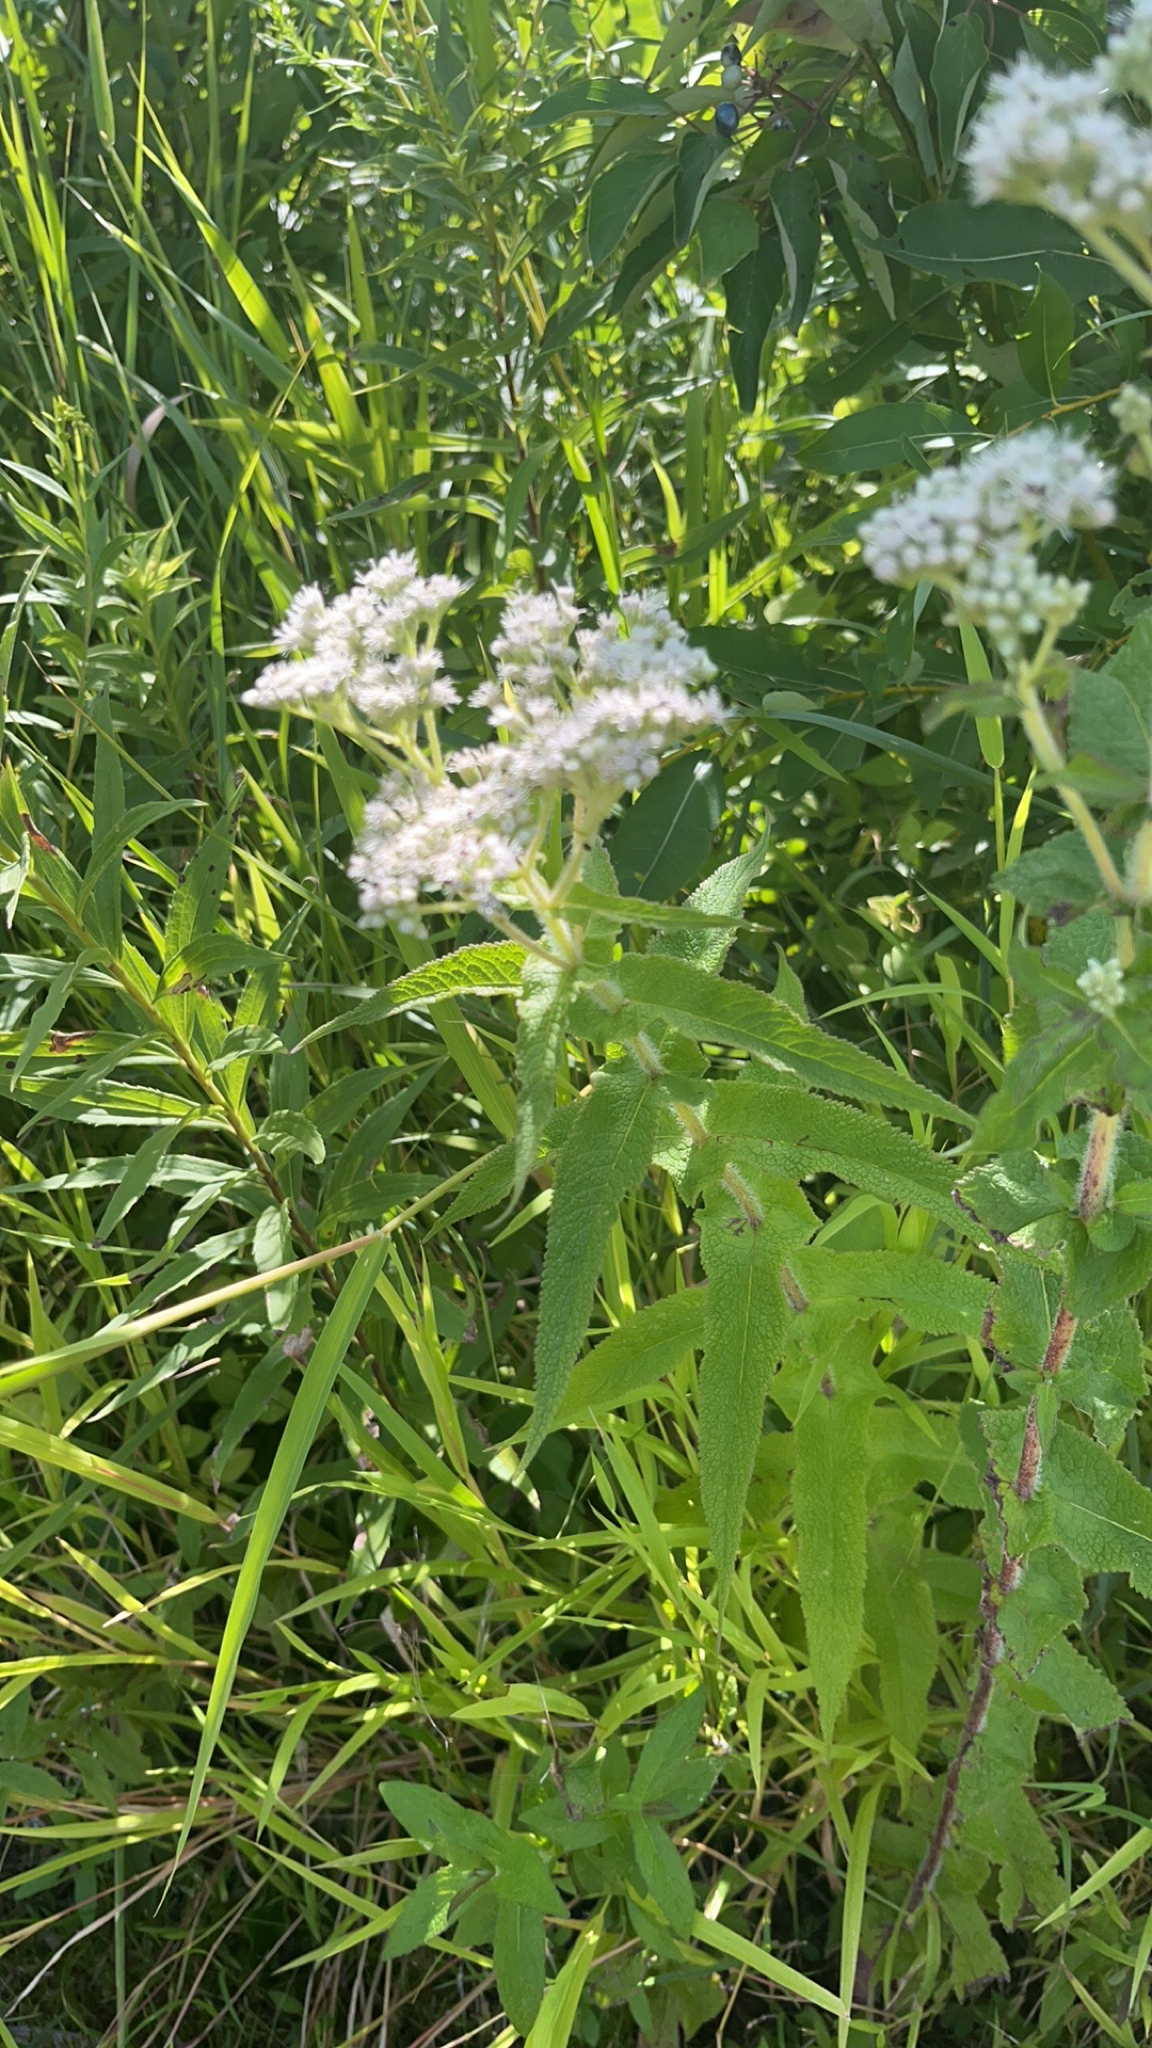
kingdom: Plantae
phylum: Tracheophyta
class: Magnoliopsida
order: Asterales
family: Asteraceae
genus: Eupatorium
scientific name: Eupatorium perfoliatum
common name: Boneset
